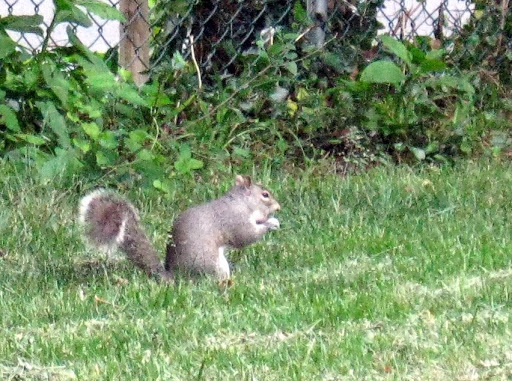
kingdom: Animalia
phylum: Chordata
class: Mammalia
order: Rodentia
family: Sciuridae
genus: Sciurus
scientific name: Sciurus carolinensis
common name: Eastern gray squirrel
